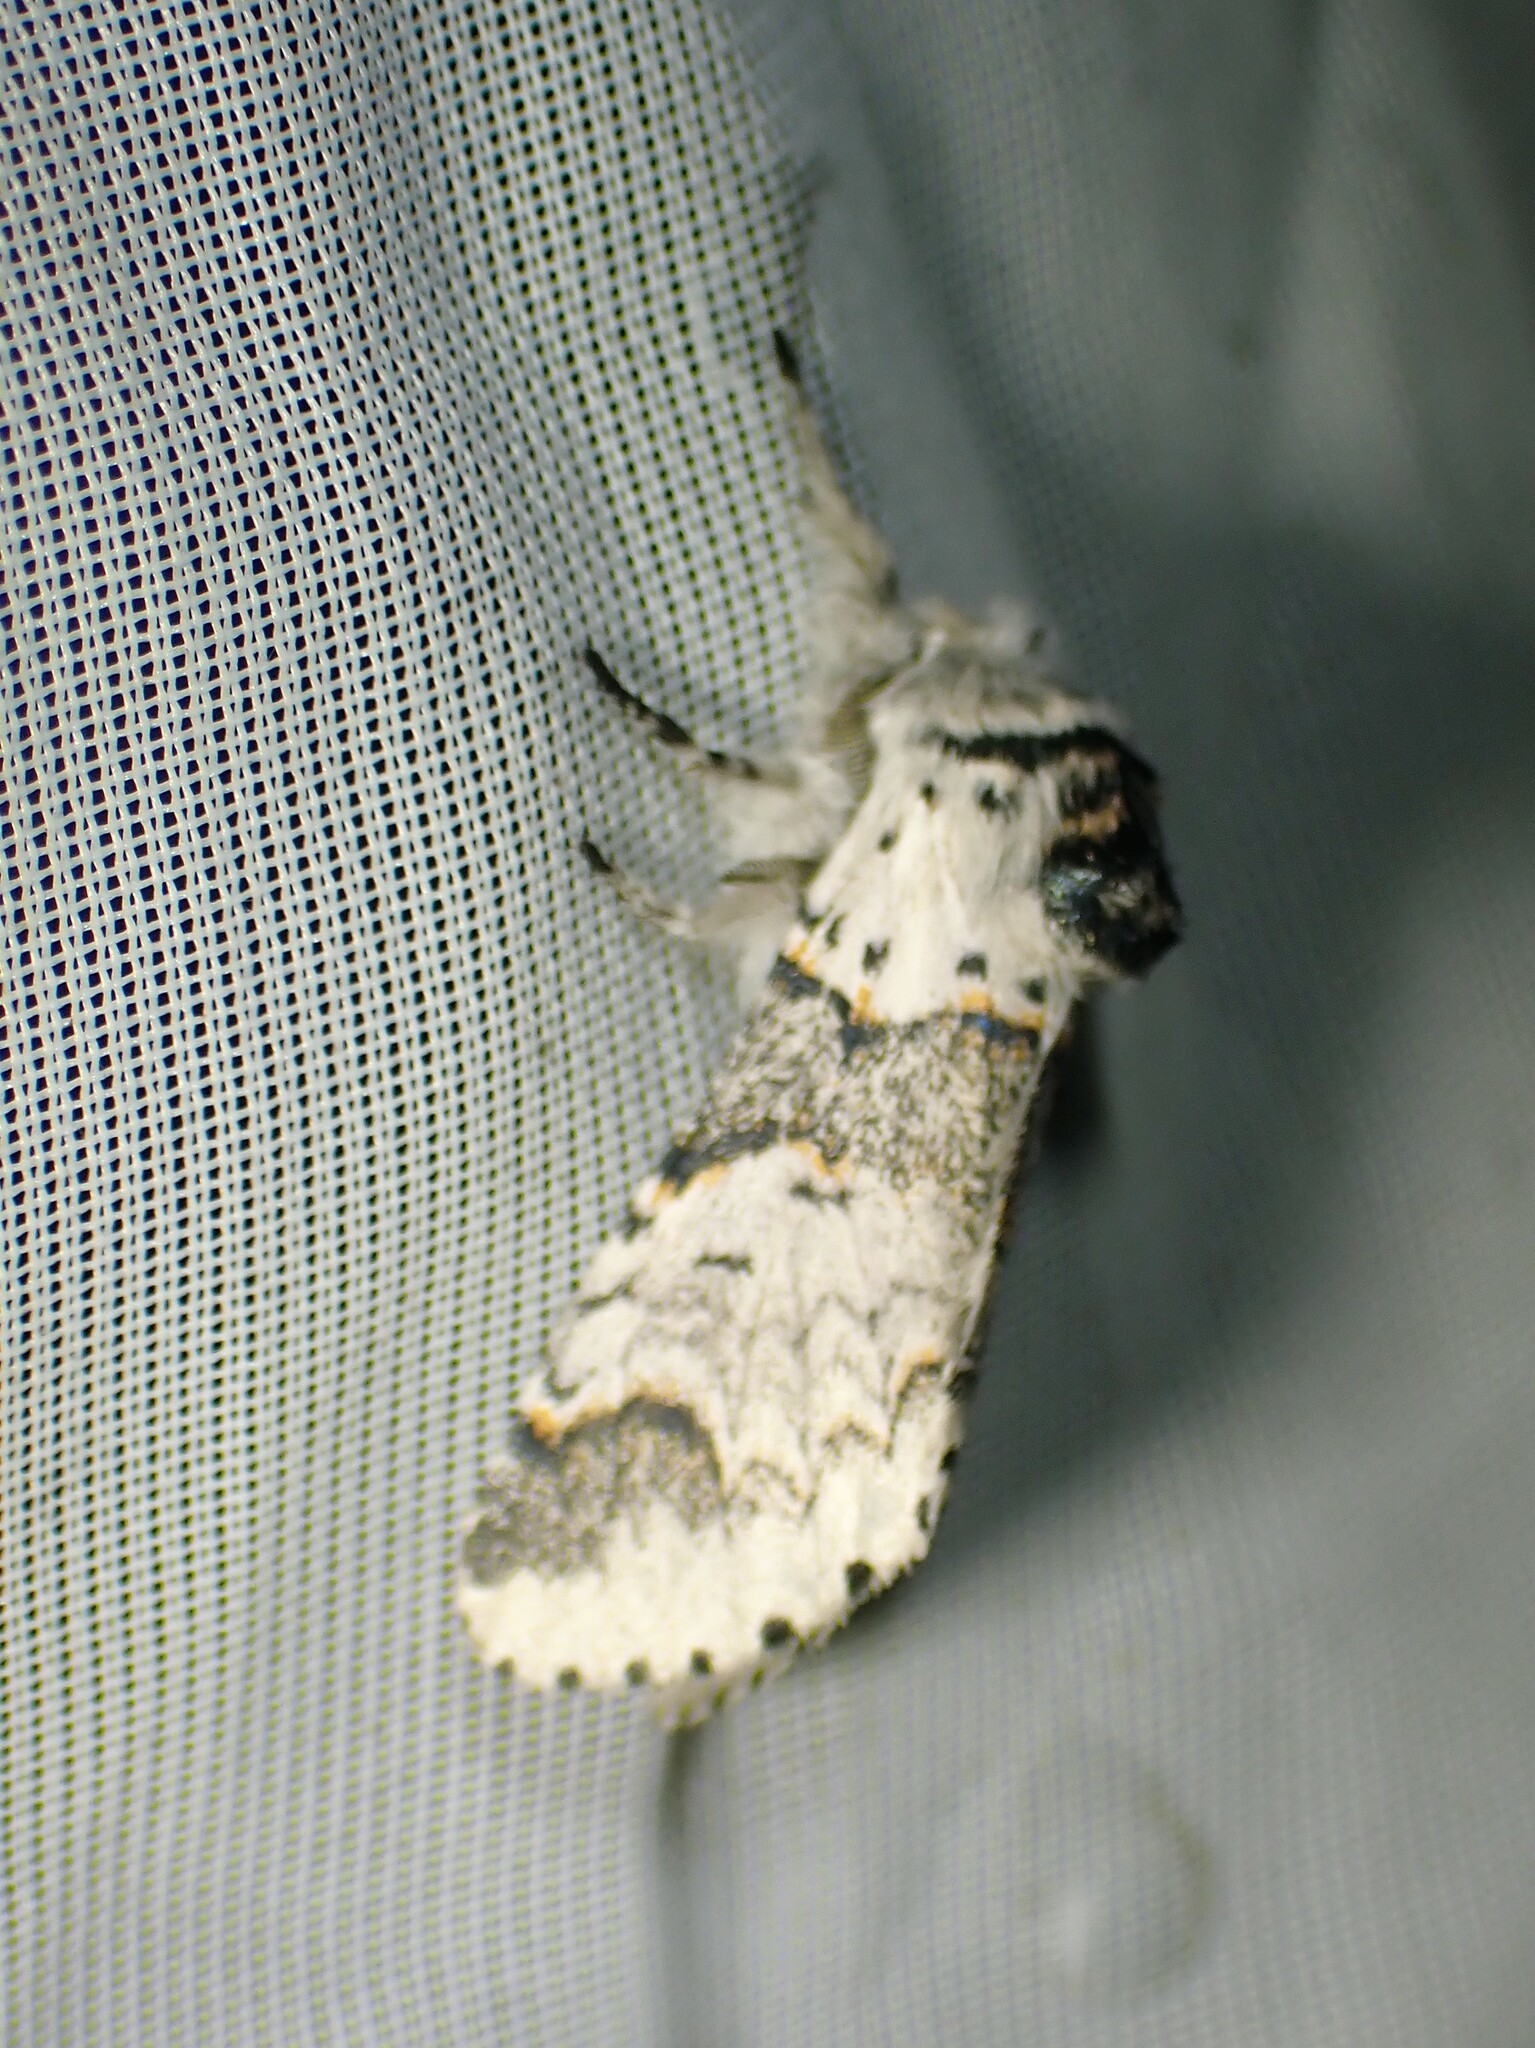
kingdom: Animalia
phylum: Arthropoda
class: Insecta
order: Lepidoptera
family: Notodontidae
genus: Furcula
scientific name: Furcula occidentalis
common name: Western furcula moth
